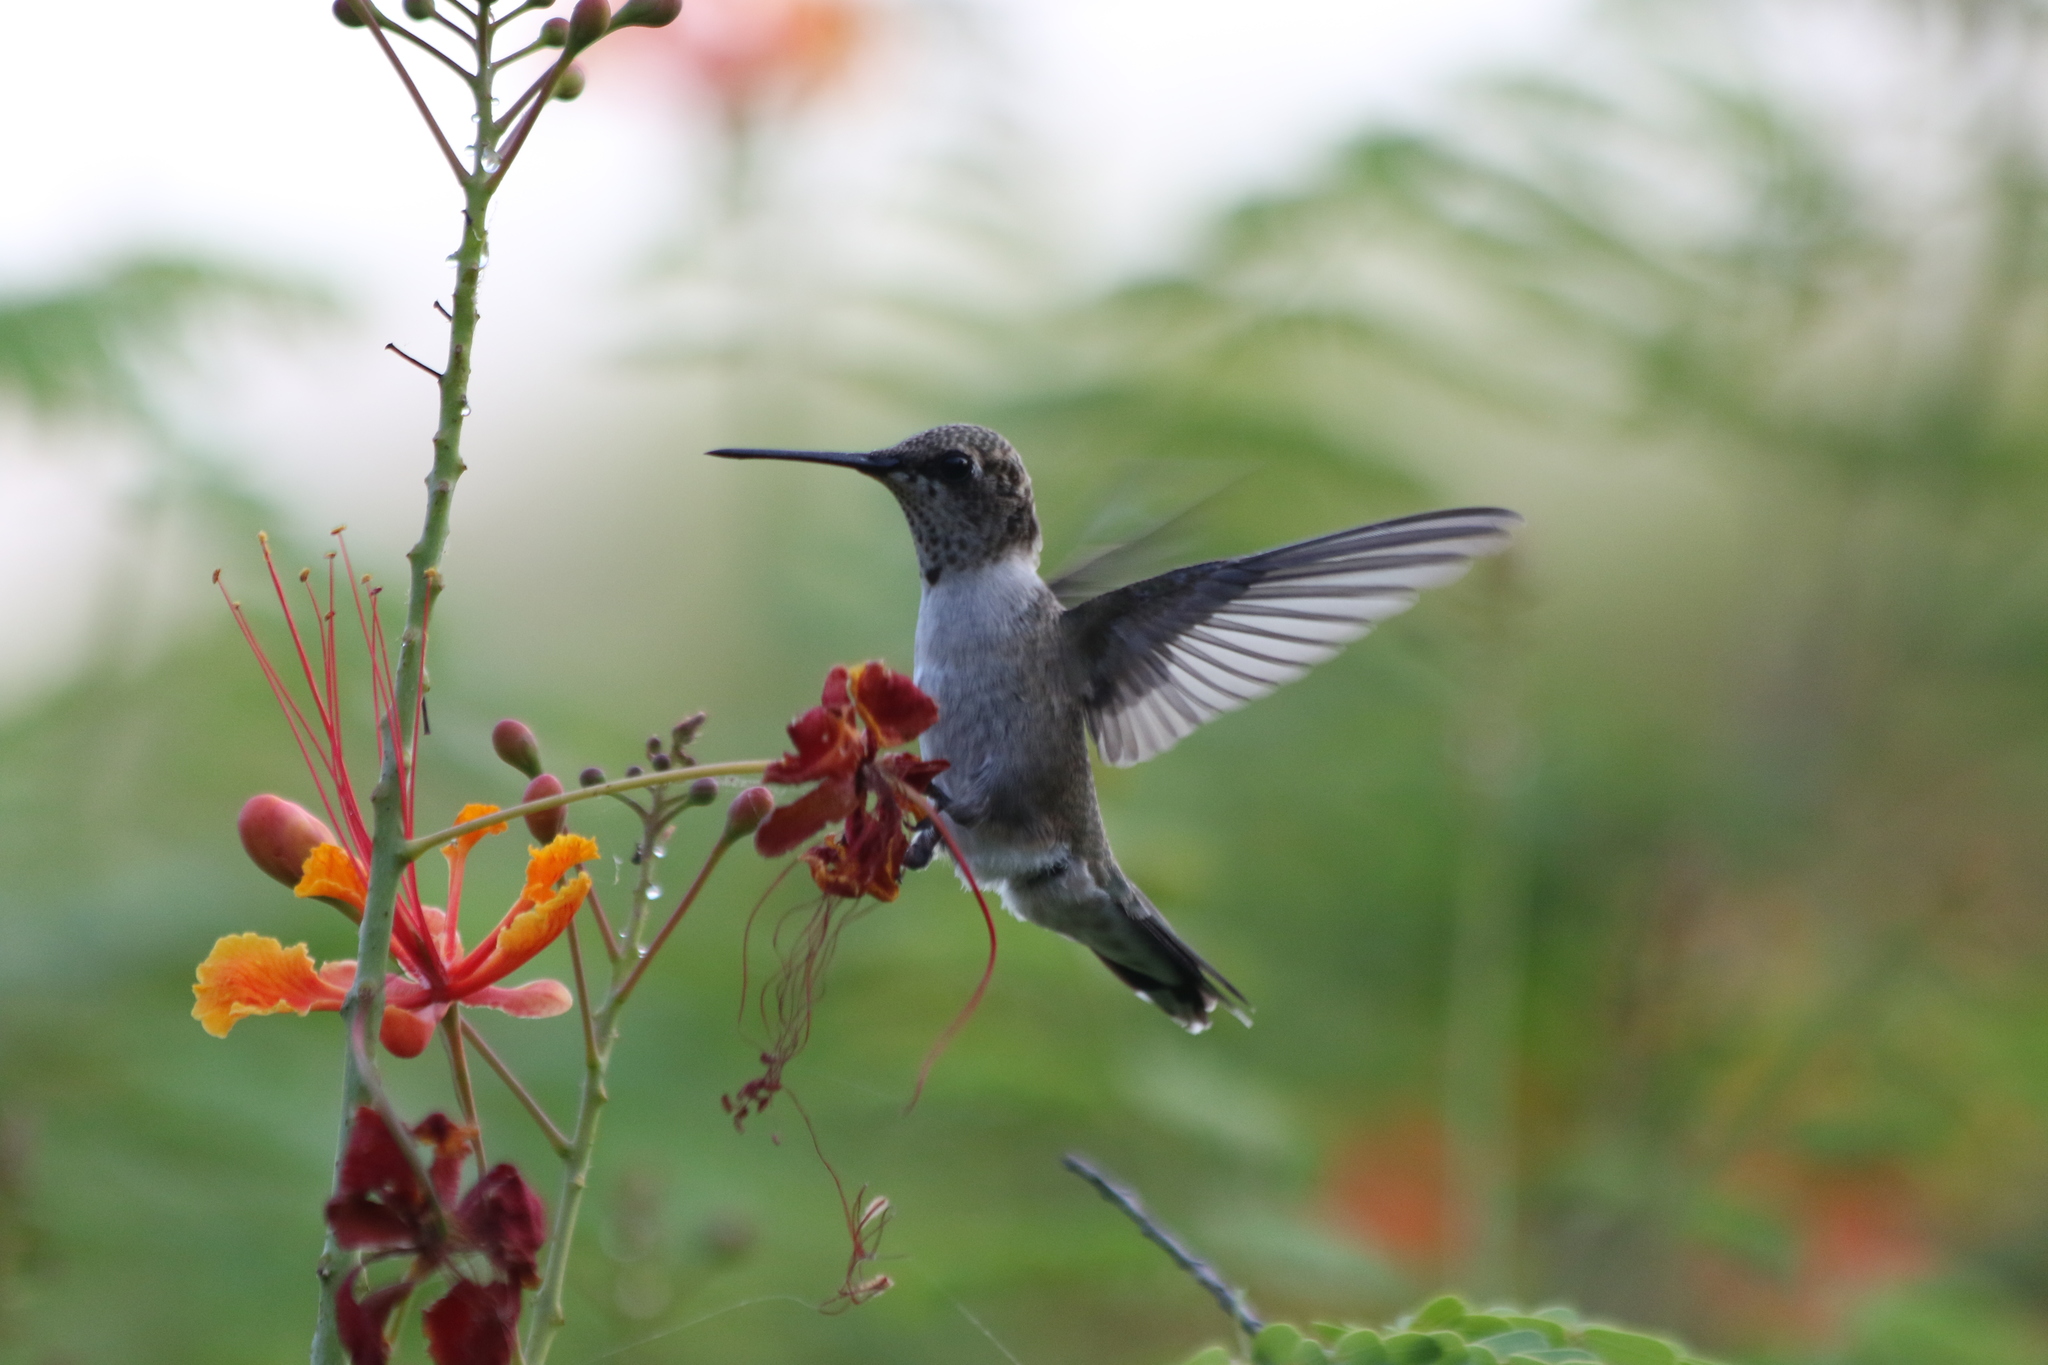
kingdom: Animalia
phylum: Chordata
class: Aves
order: Apodiformes
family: Trochilidae
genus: Archilochus
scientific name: Archilochus alexandri
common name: Black-chinned hummingbird
